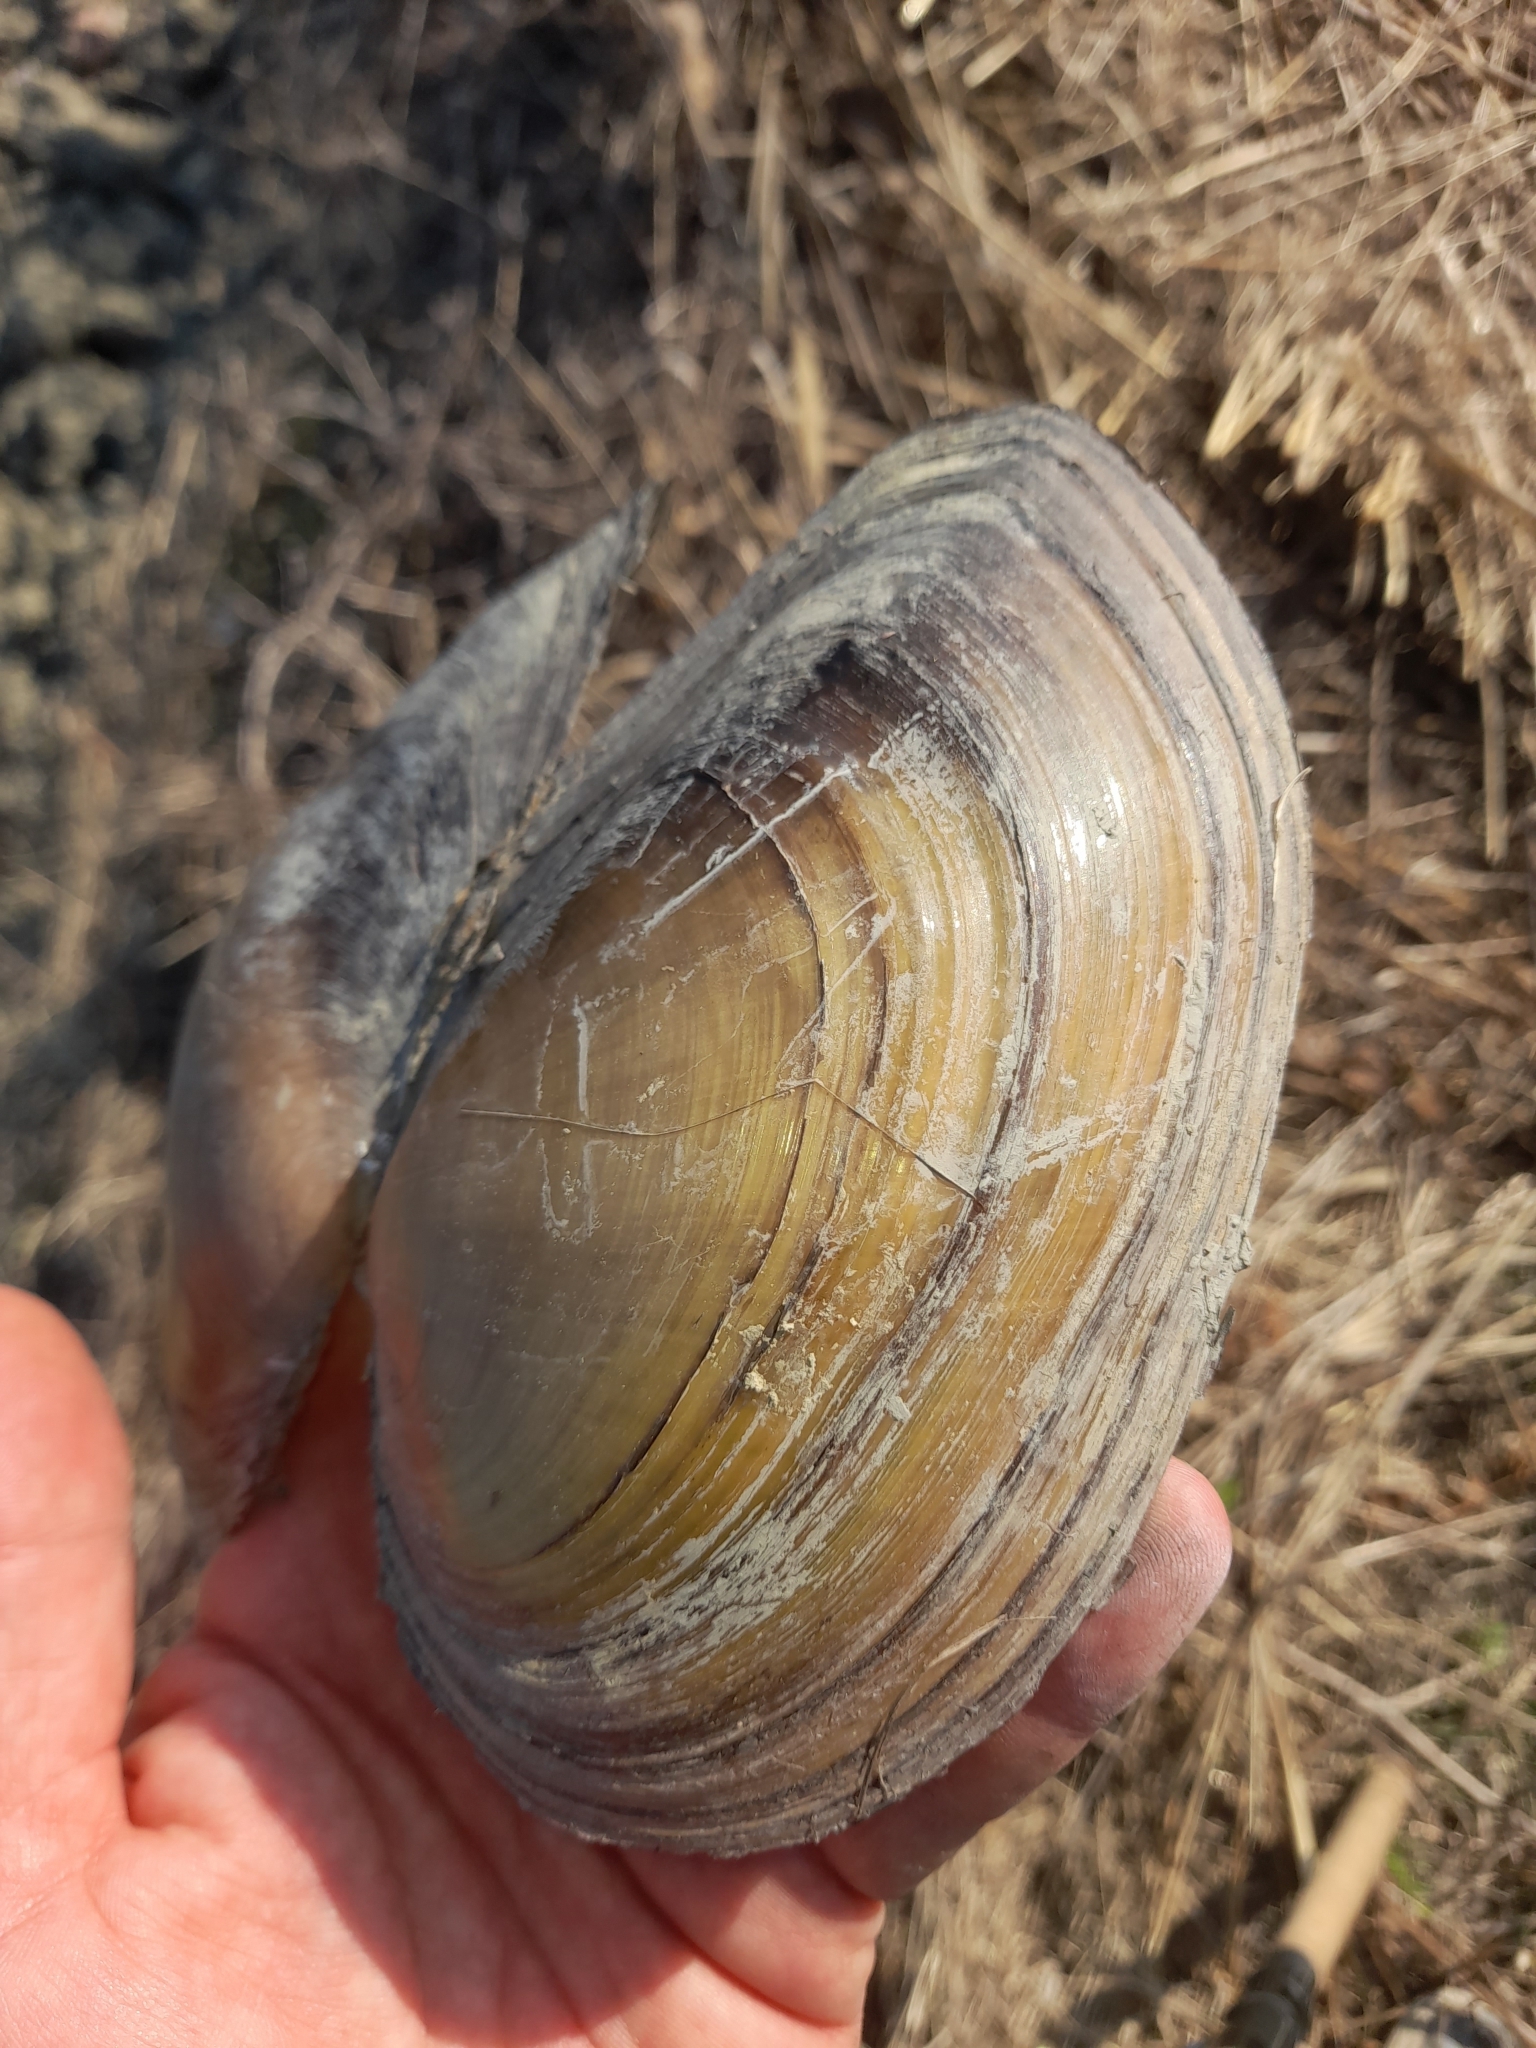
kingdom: Animalia
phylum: Mollusca
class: Bivalvia
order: Unionida
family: Unionidae
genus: Anodonta
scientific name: Anodonta anatina
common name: Duck mussel
